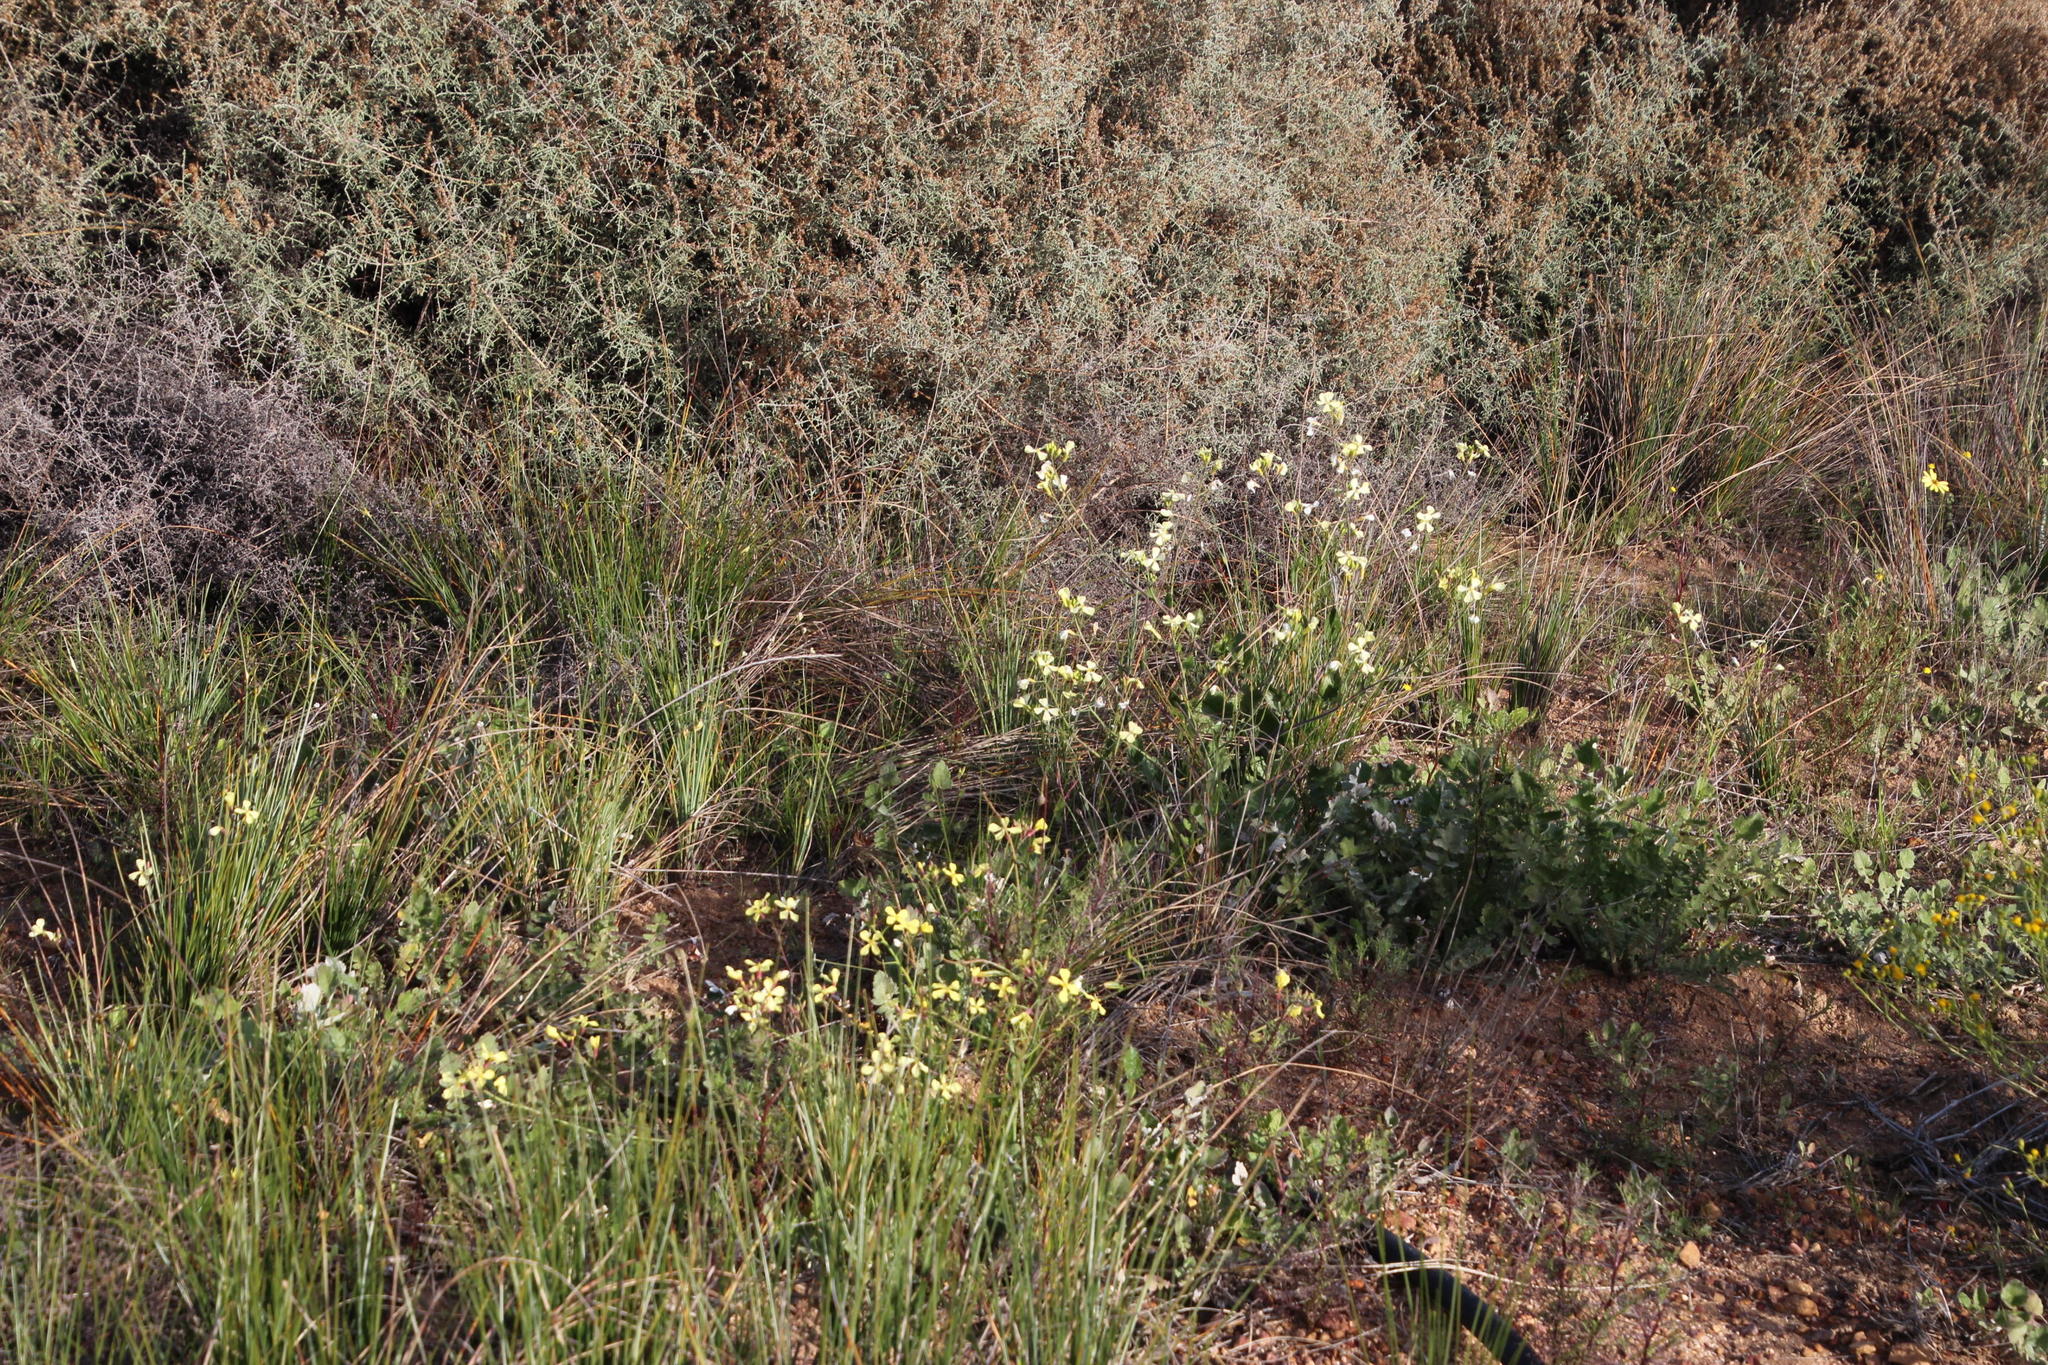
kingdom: Plantae
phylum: Tracheophyta
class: Magnoliopsida
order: Brassicales
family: Brassicaceae
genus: Raphanus
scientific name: Raphanus raphanistrum
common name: Wild radish
